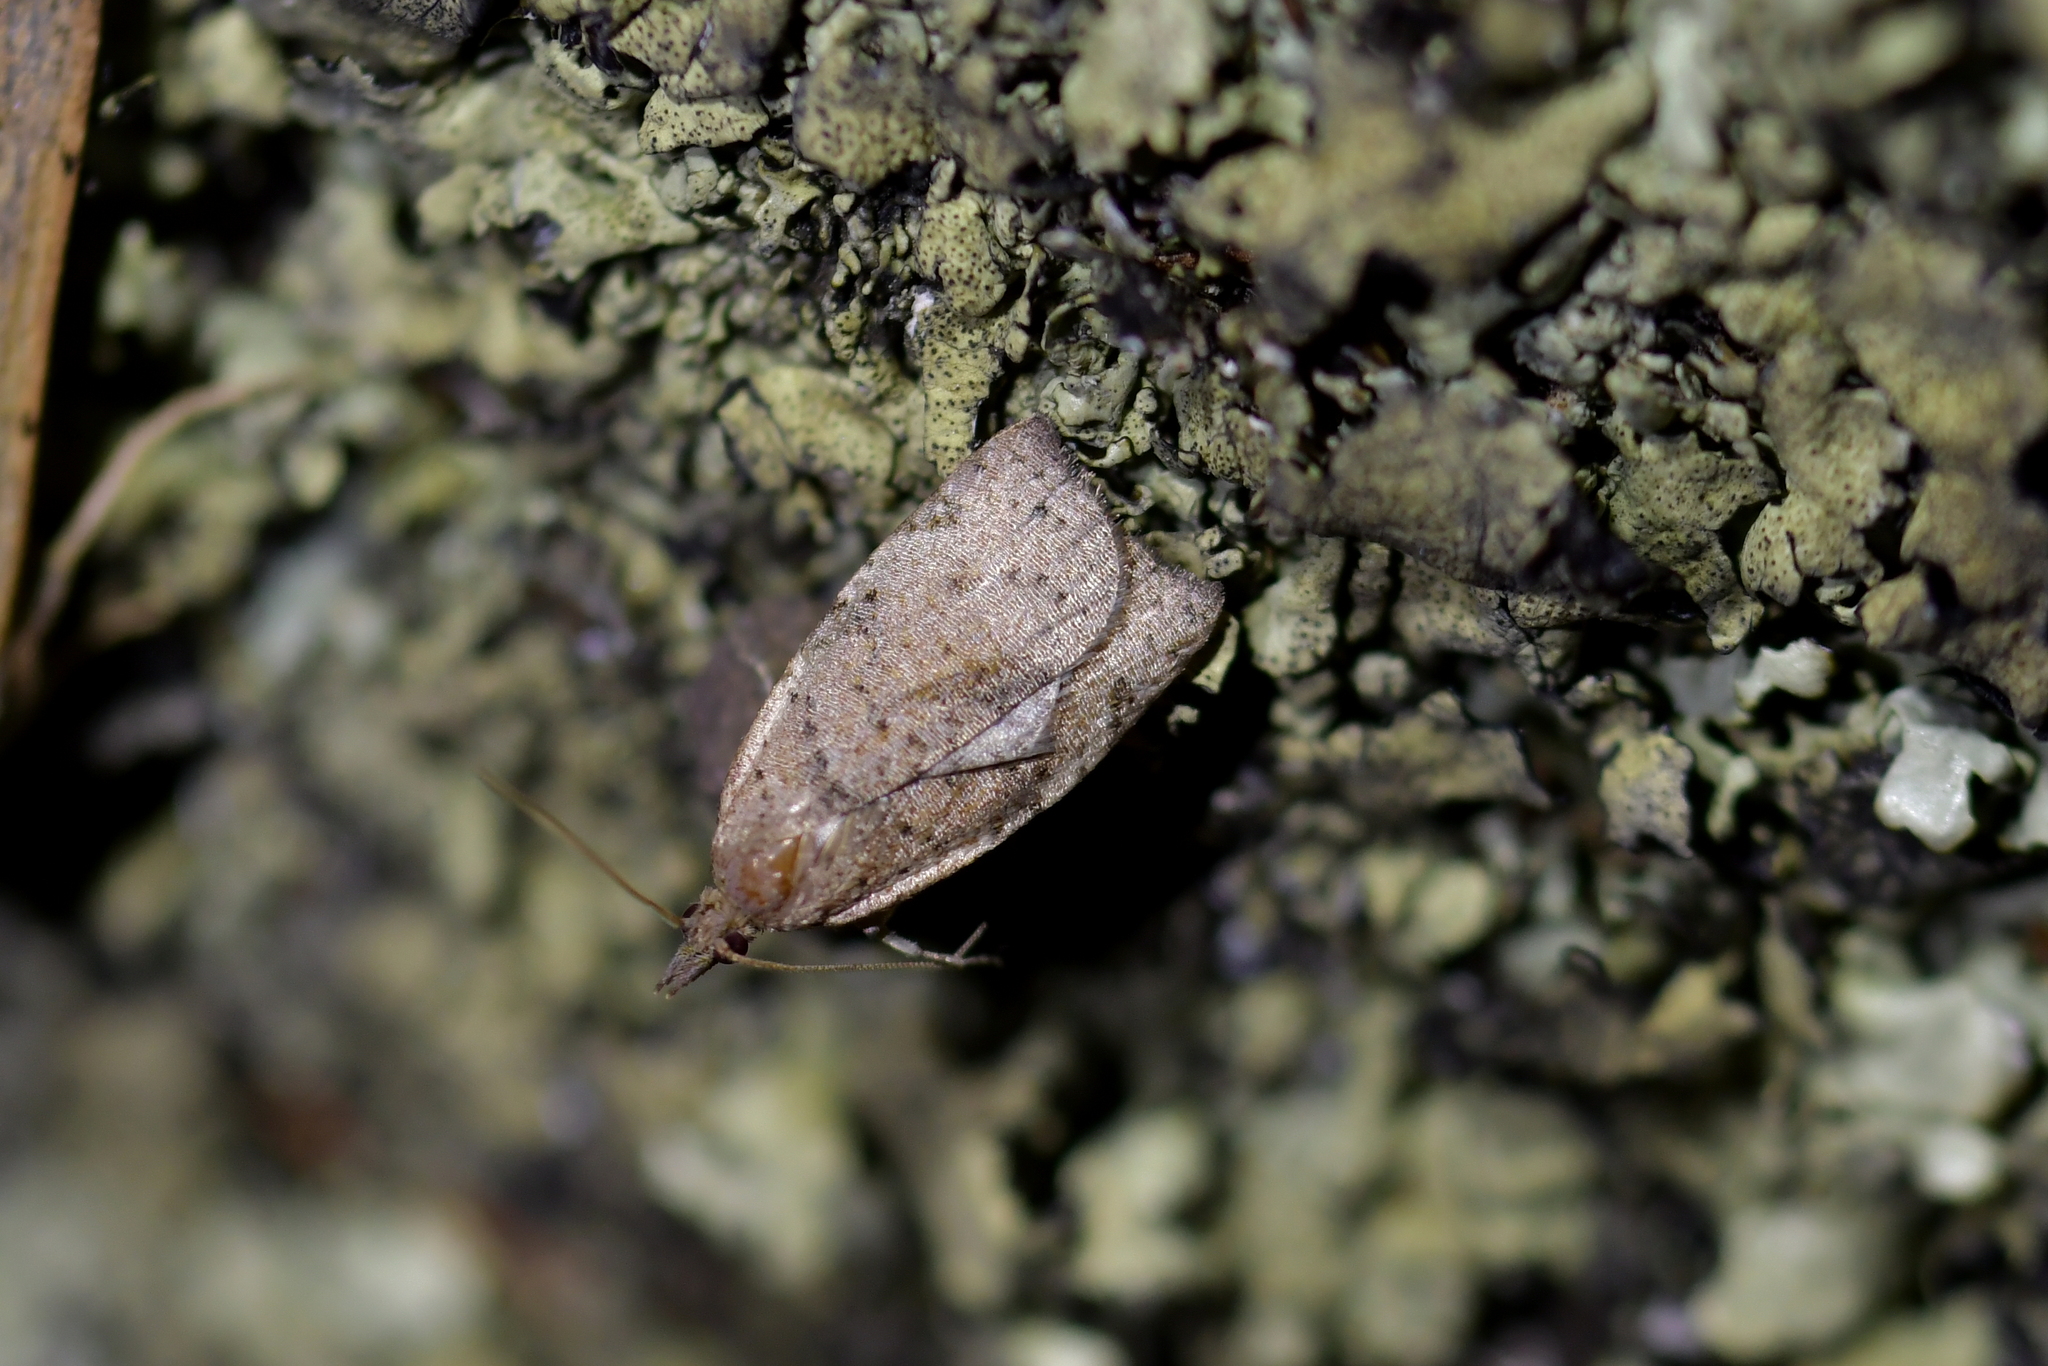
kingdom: Animalia
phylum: Arthropoda
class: Insecta
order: Lepidoptera
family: Tortricidae
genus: Apoctena
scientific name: Apoctena flavescens
